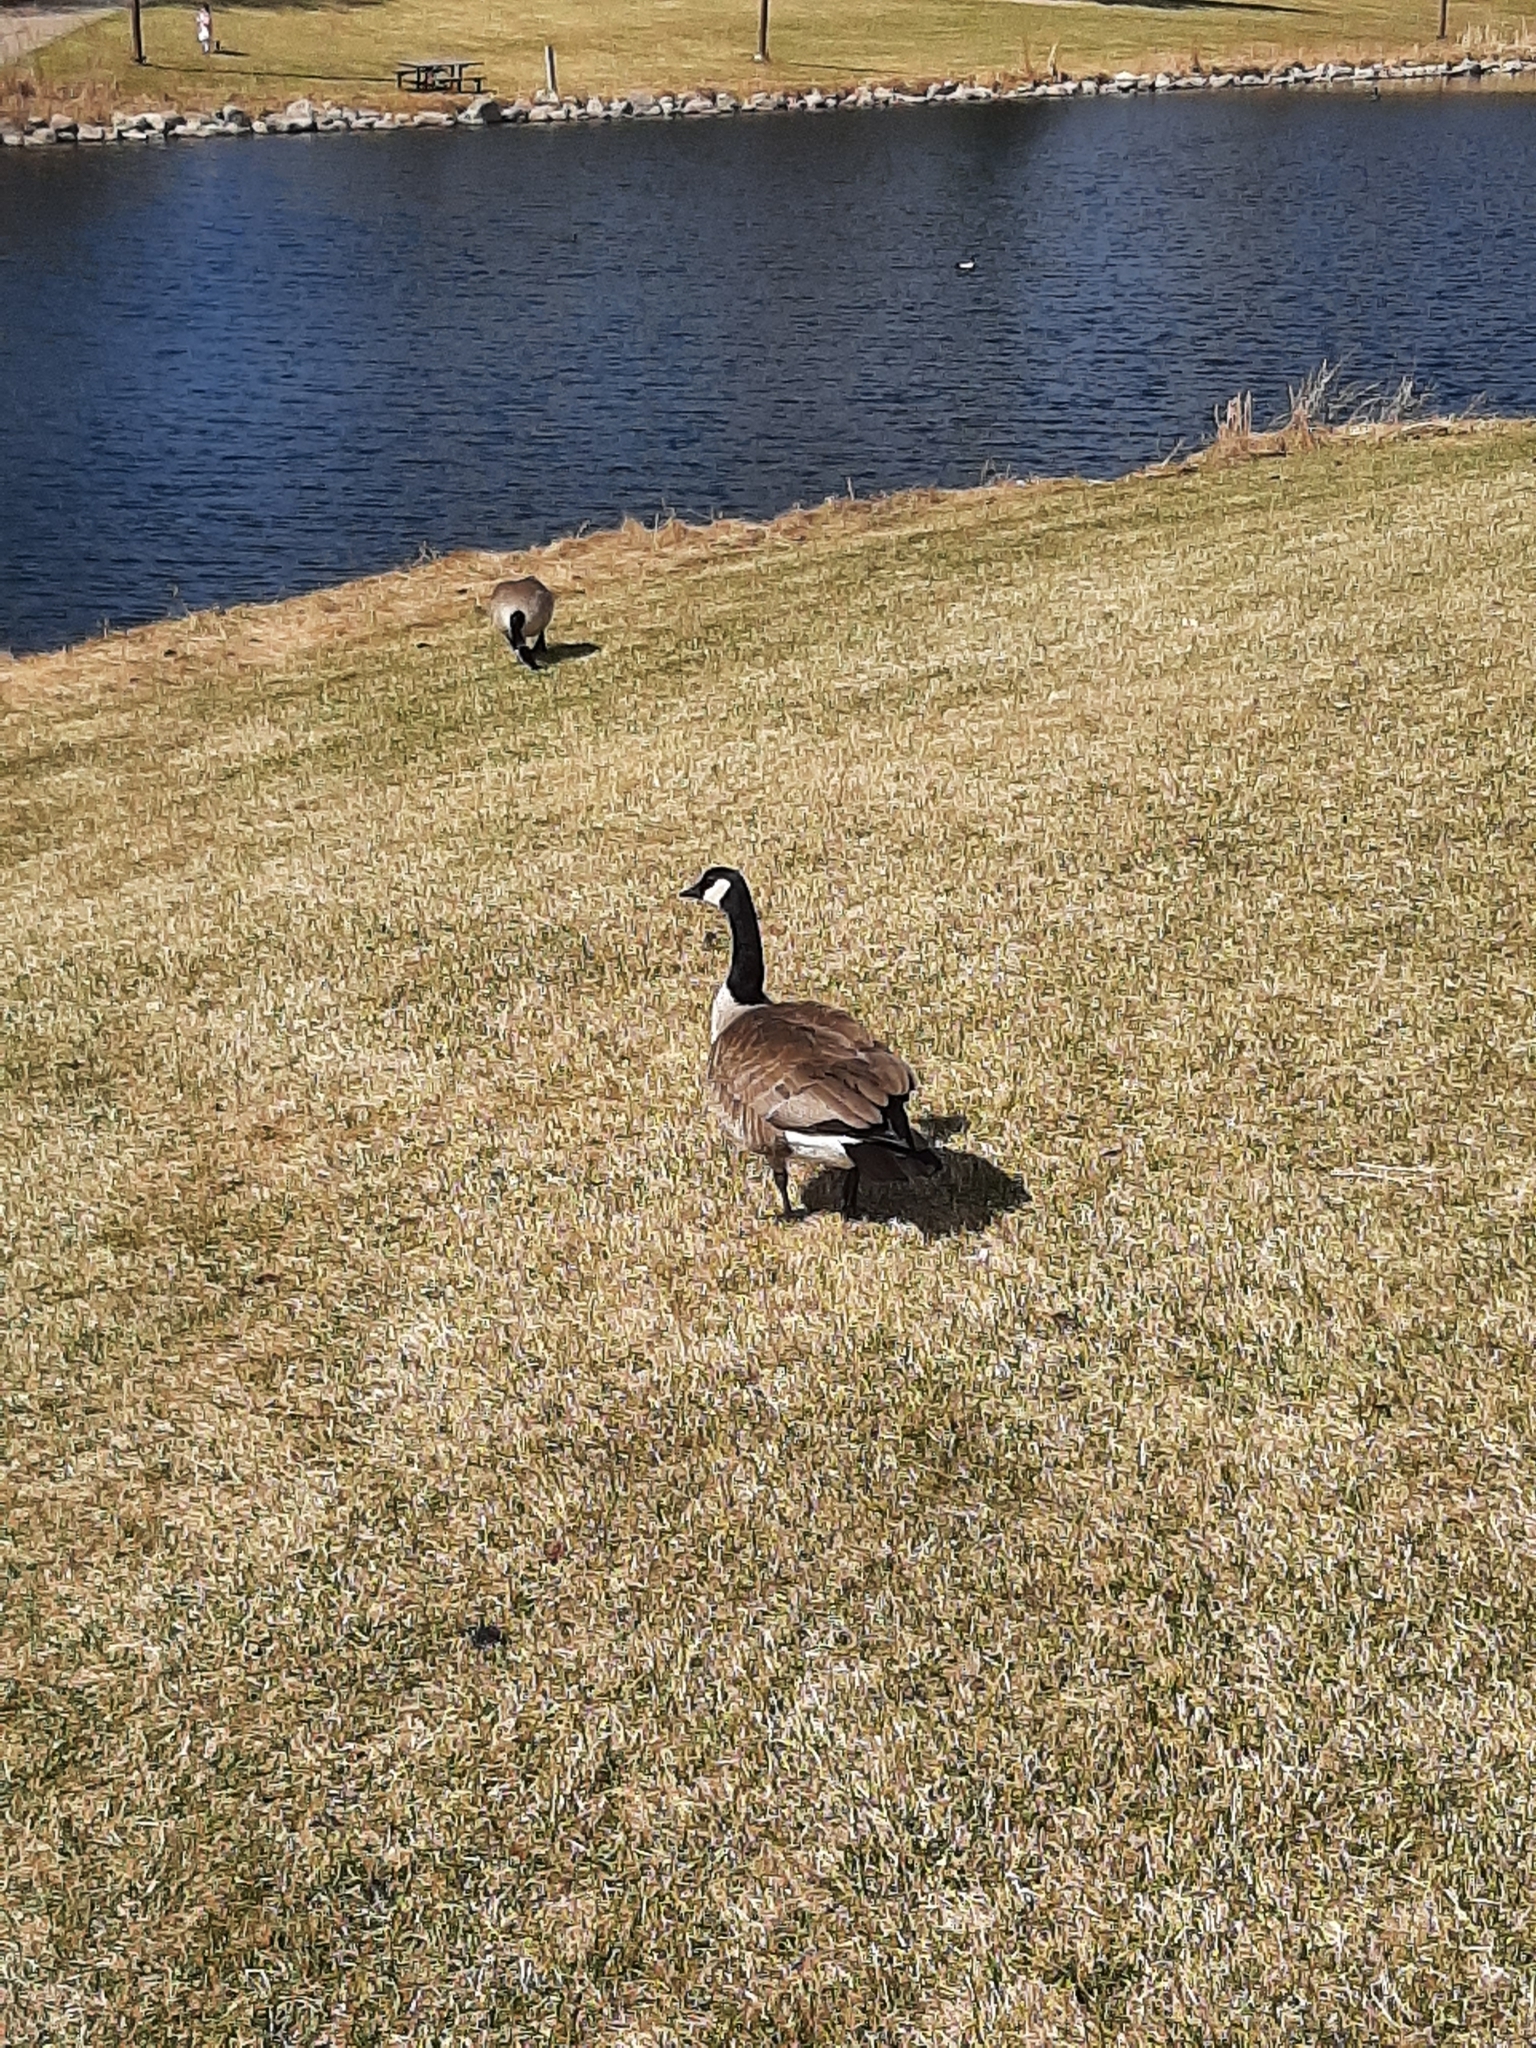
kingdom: Animalia
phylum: Chordata
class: Aves
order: Anseriformes
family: Anatidae
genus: Branta
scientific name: Branta canadensis
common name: Canada goose
